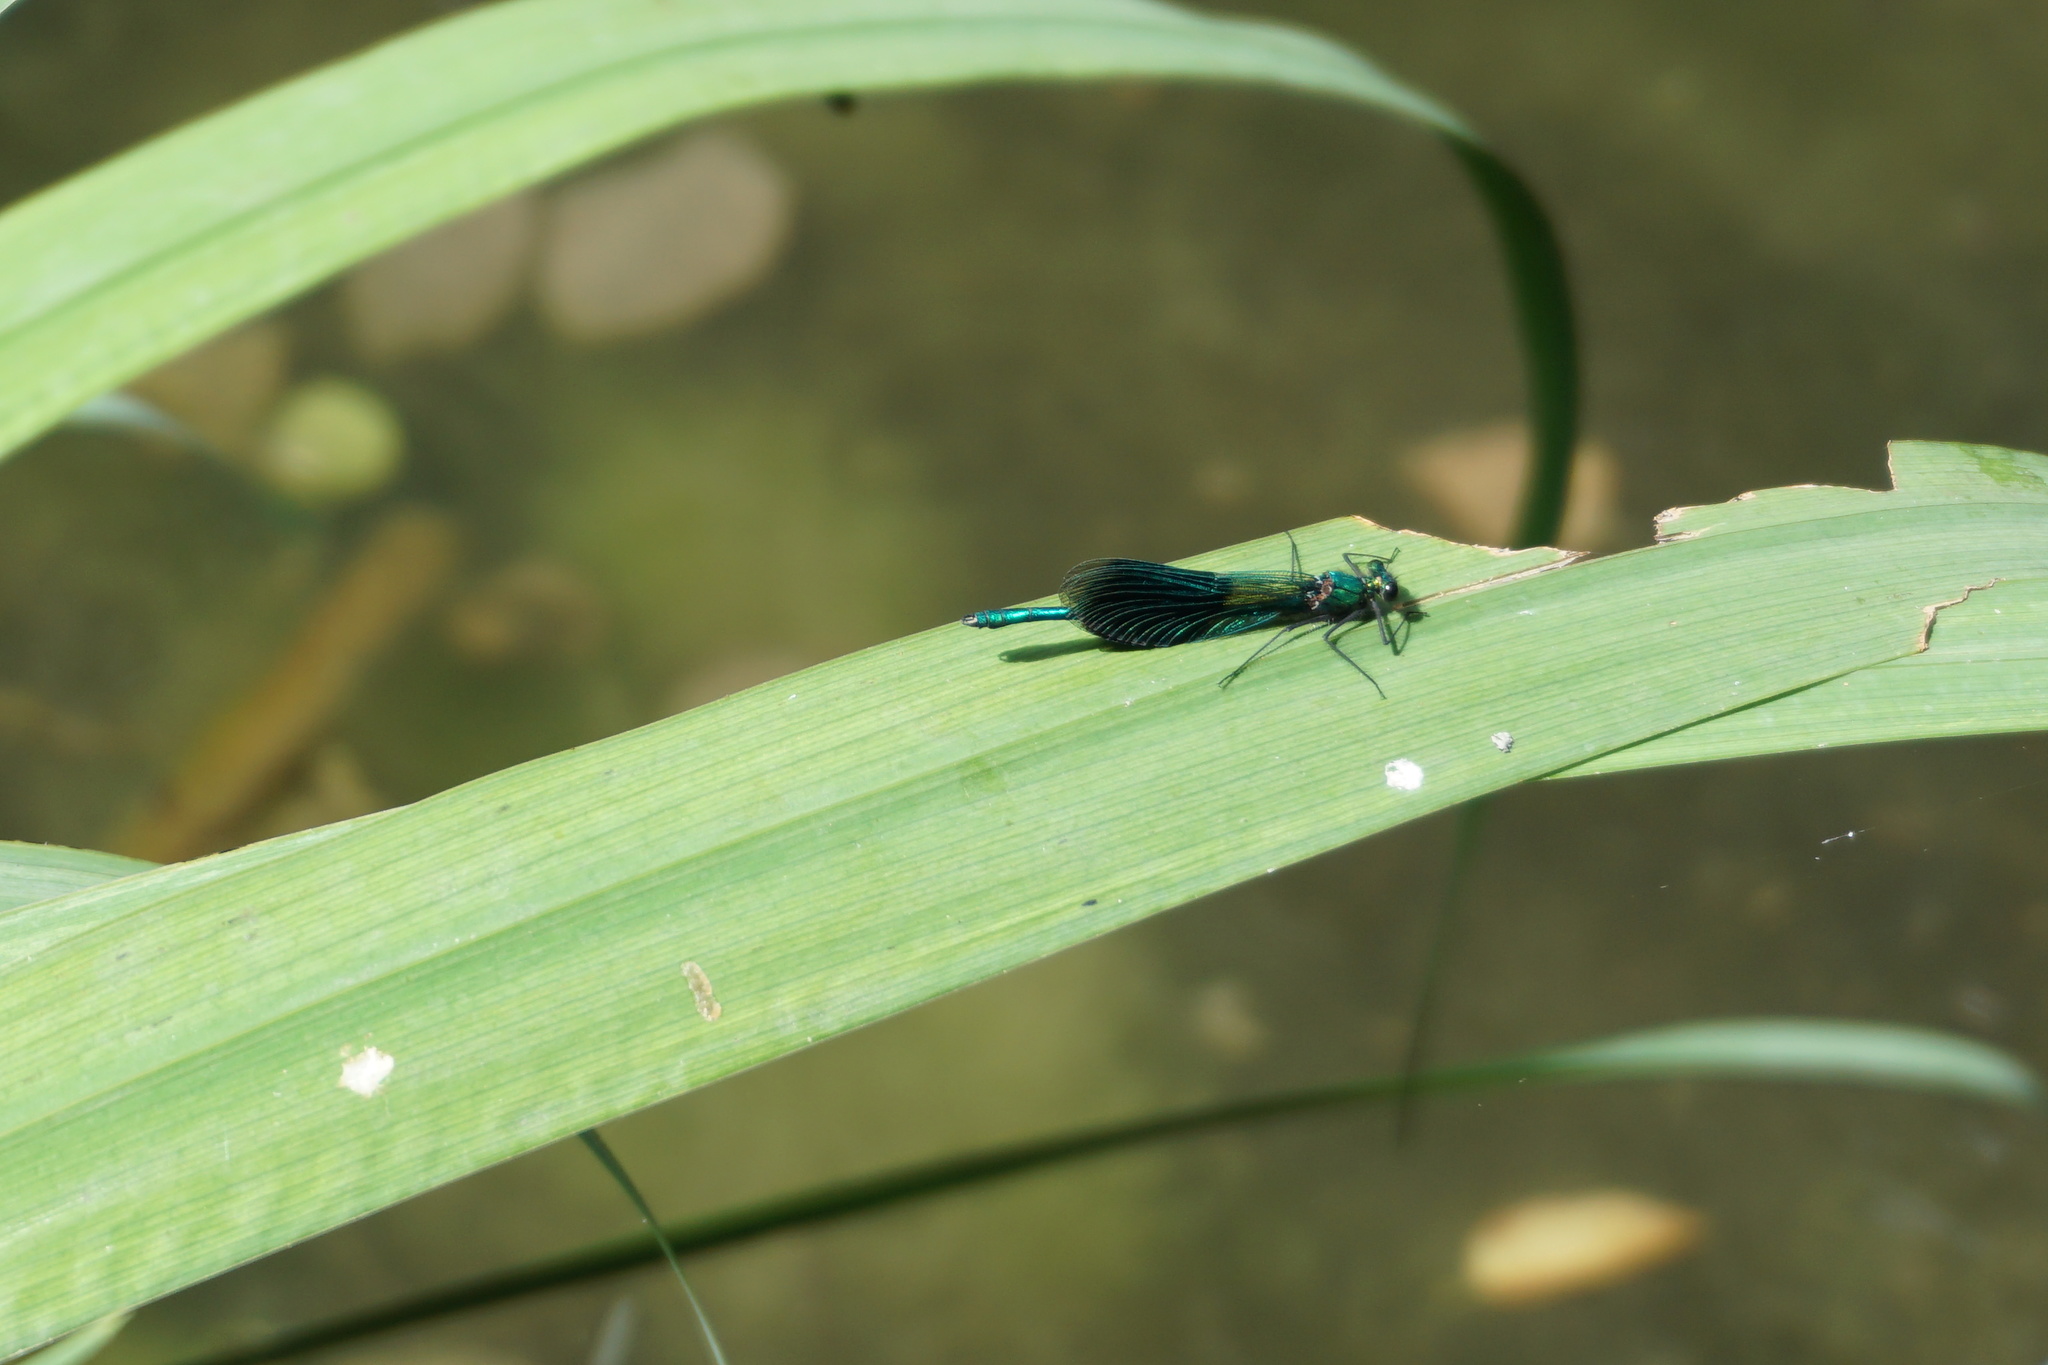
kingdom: Animalia
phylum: Arthropoda
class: Insecta
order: Odonata
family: Calopterygidae
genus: Calopteryx
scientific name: Calopteryx splendens
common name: Banded demoiselle
